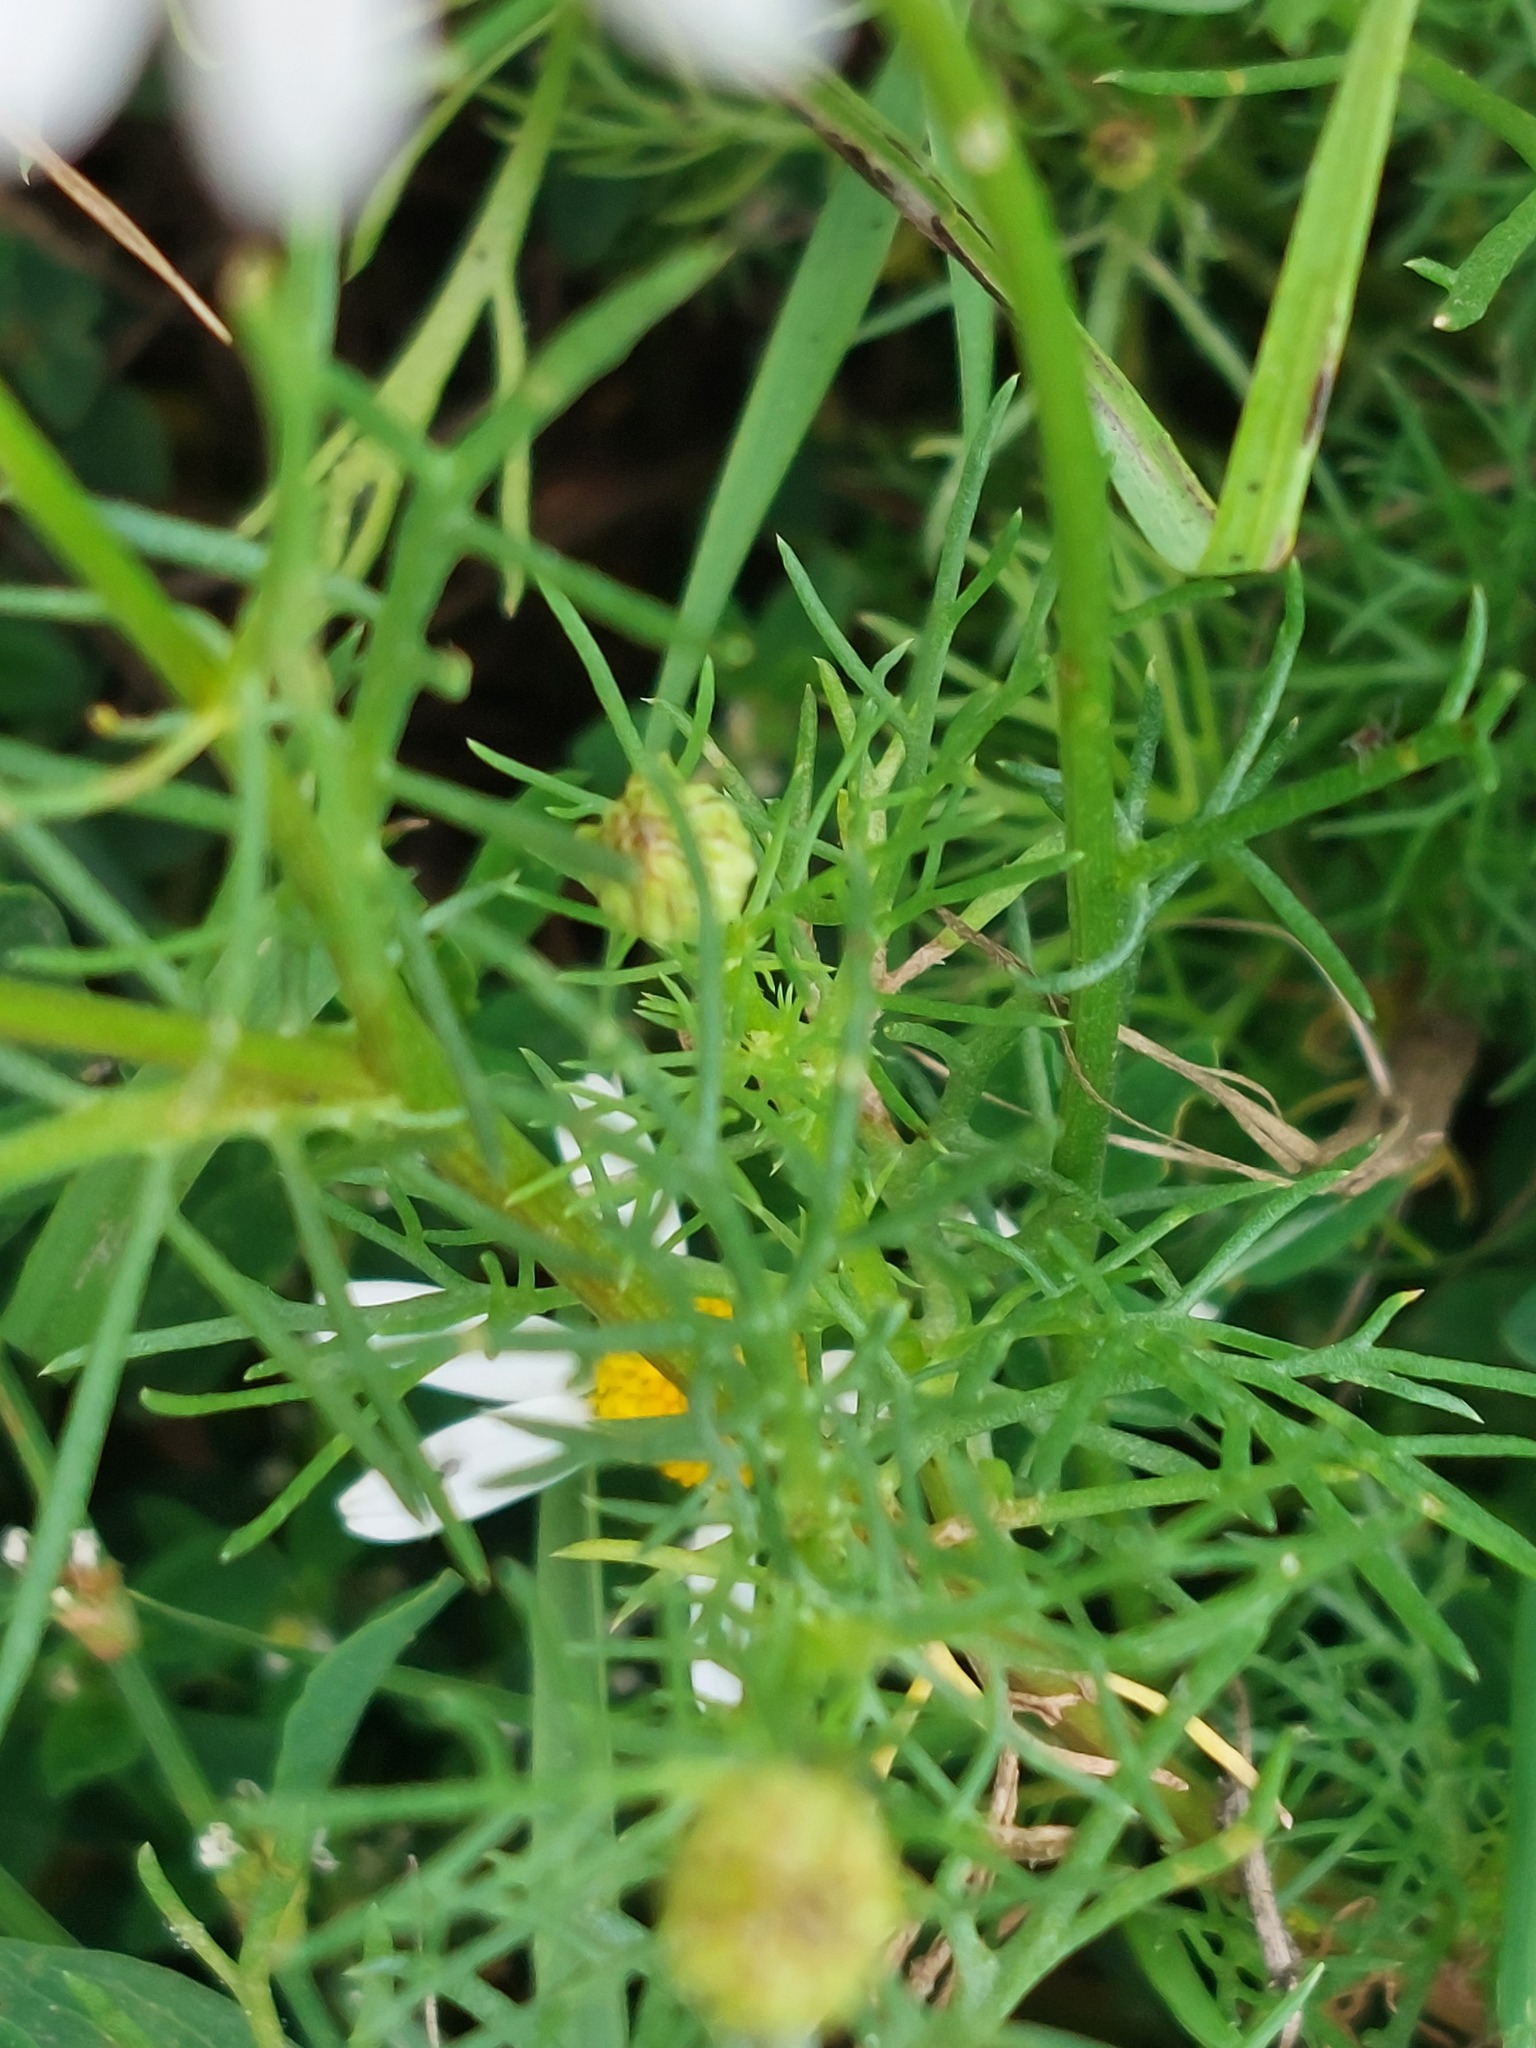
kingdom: Plantae
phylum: Tracheophyta
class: Magnoliopsida
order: Asterales
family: Asteraceae
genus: Tripleurospermum
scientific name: Tripleurospermum inodorum
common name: Scentless mayweed
